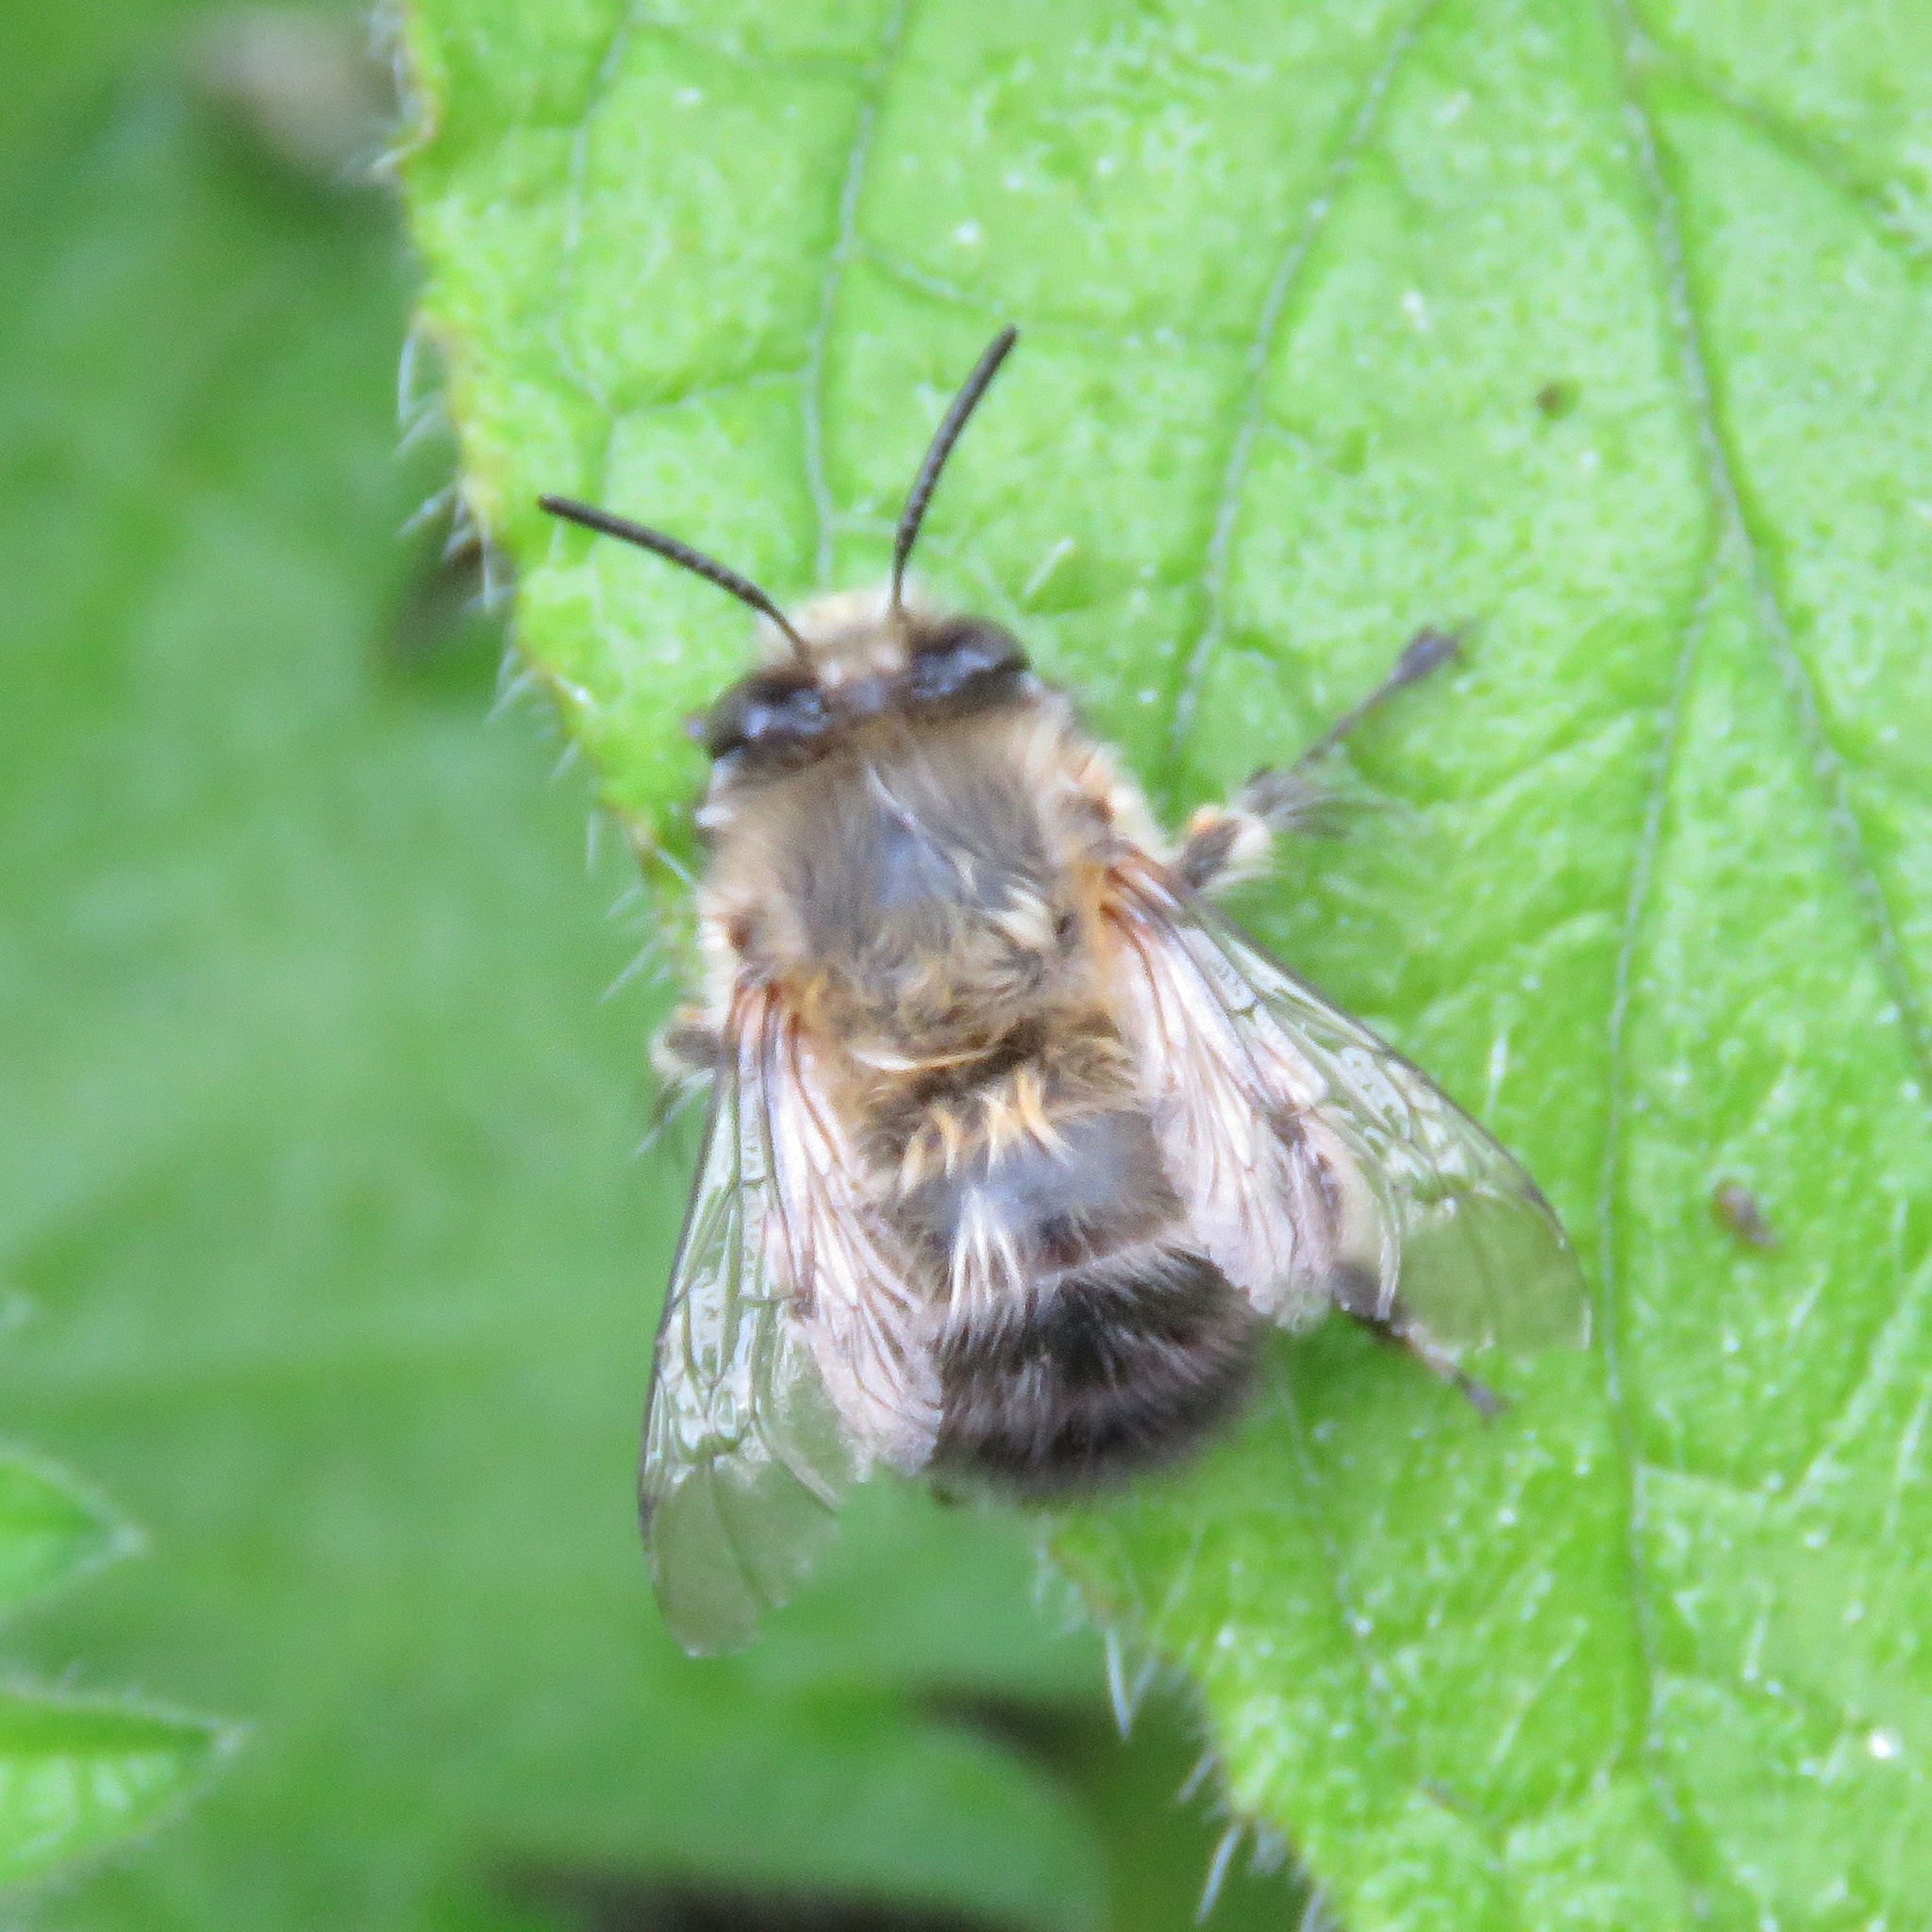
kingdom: Animalia
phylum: Arthropoda
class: Insecta
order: Hymenoptera
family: Apidae
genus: Anthophora
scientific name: Anthophora plumipes
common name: Hairy-footed flower bee
